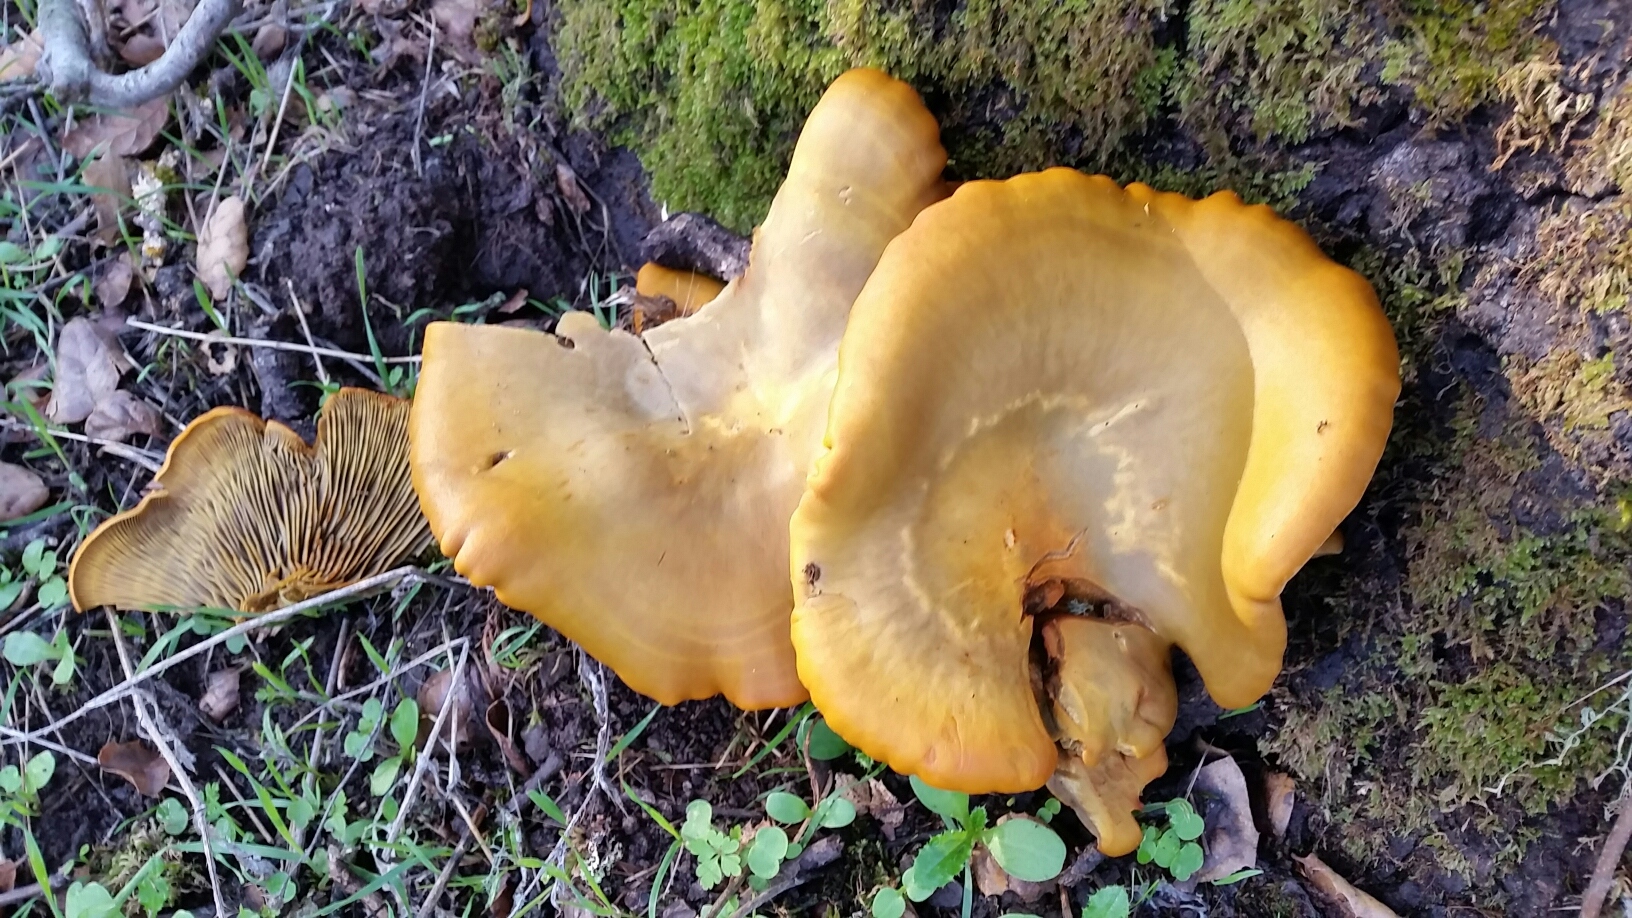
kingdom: Fungi
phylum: Basidiomycota
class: Agaricomycetes
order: Agaricales
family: Omphalotaceae
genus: Omphalotus
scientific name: Omphalotus olivascens
